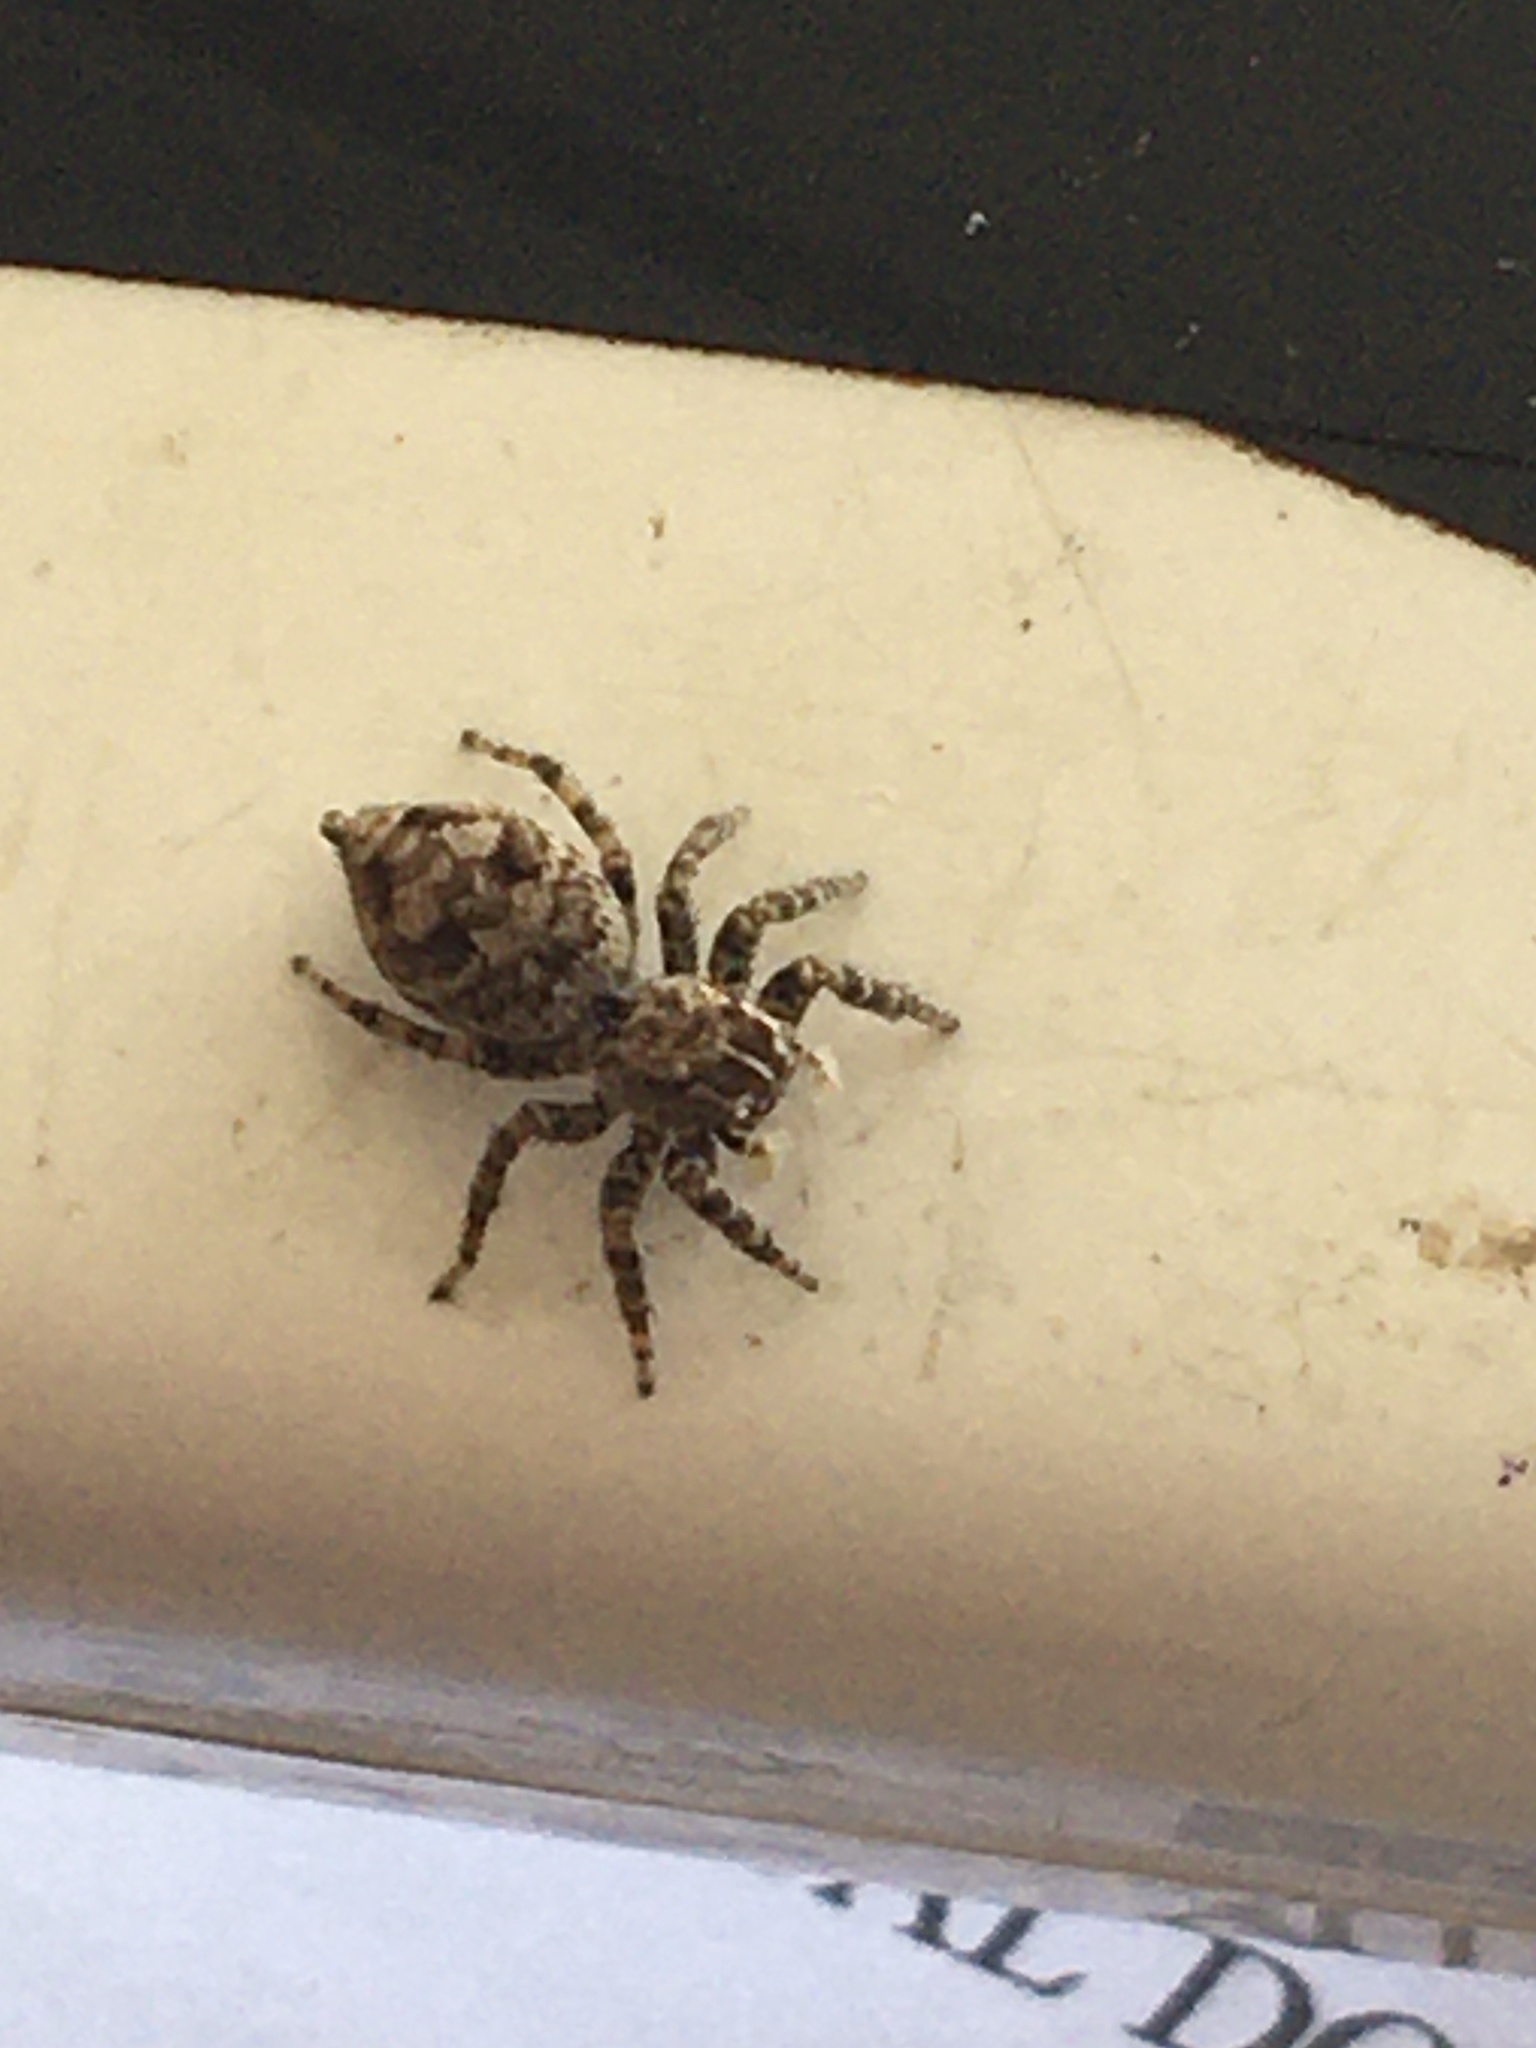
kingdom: Animalia
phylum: Arthropoda
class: Arachnida
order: Araneae
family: Salticidae
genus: Sumampattus
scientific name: Sumampattus quinqueradiatus
